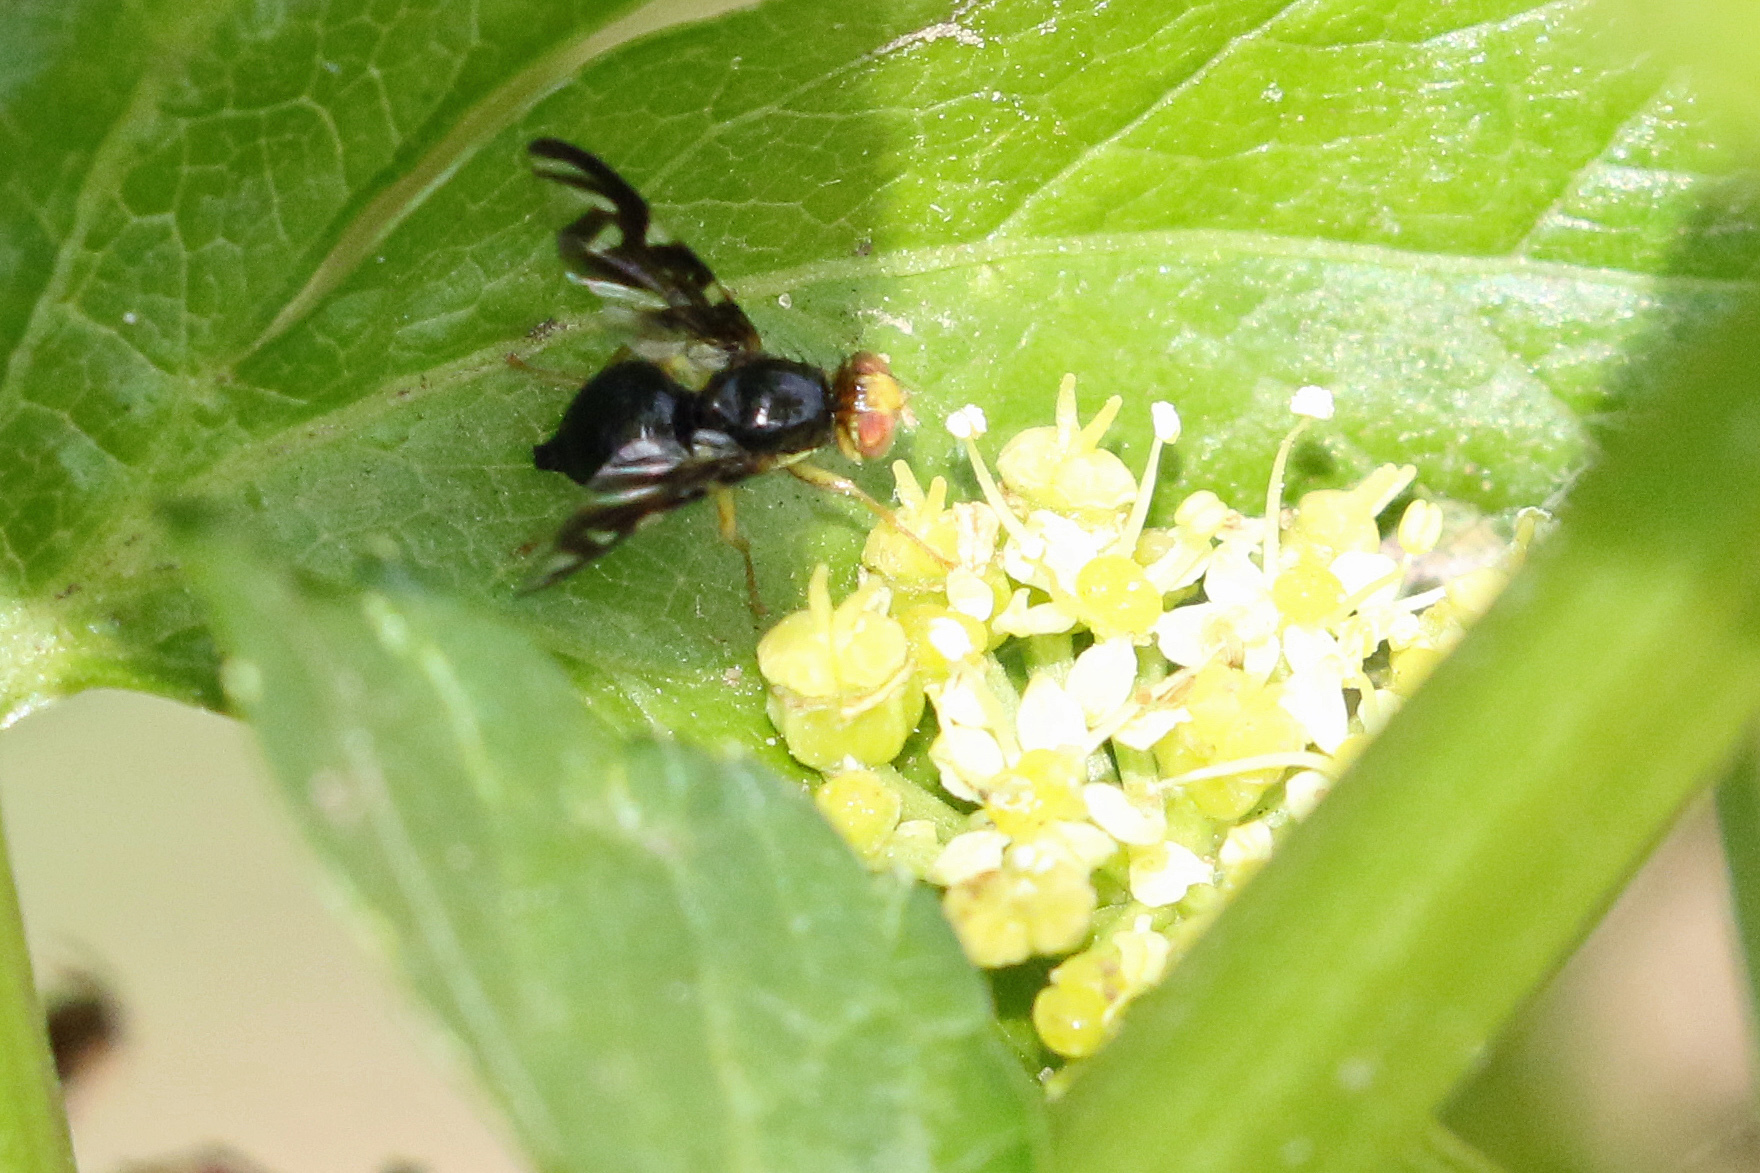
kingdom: Animalia
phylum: Arthropoda
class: Insecta
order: Diptera
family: Tephritidae
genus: Euleia
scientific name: Euleia heraclei
